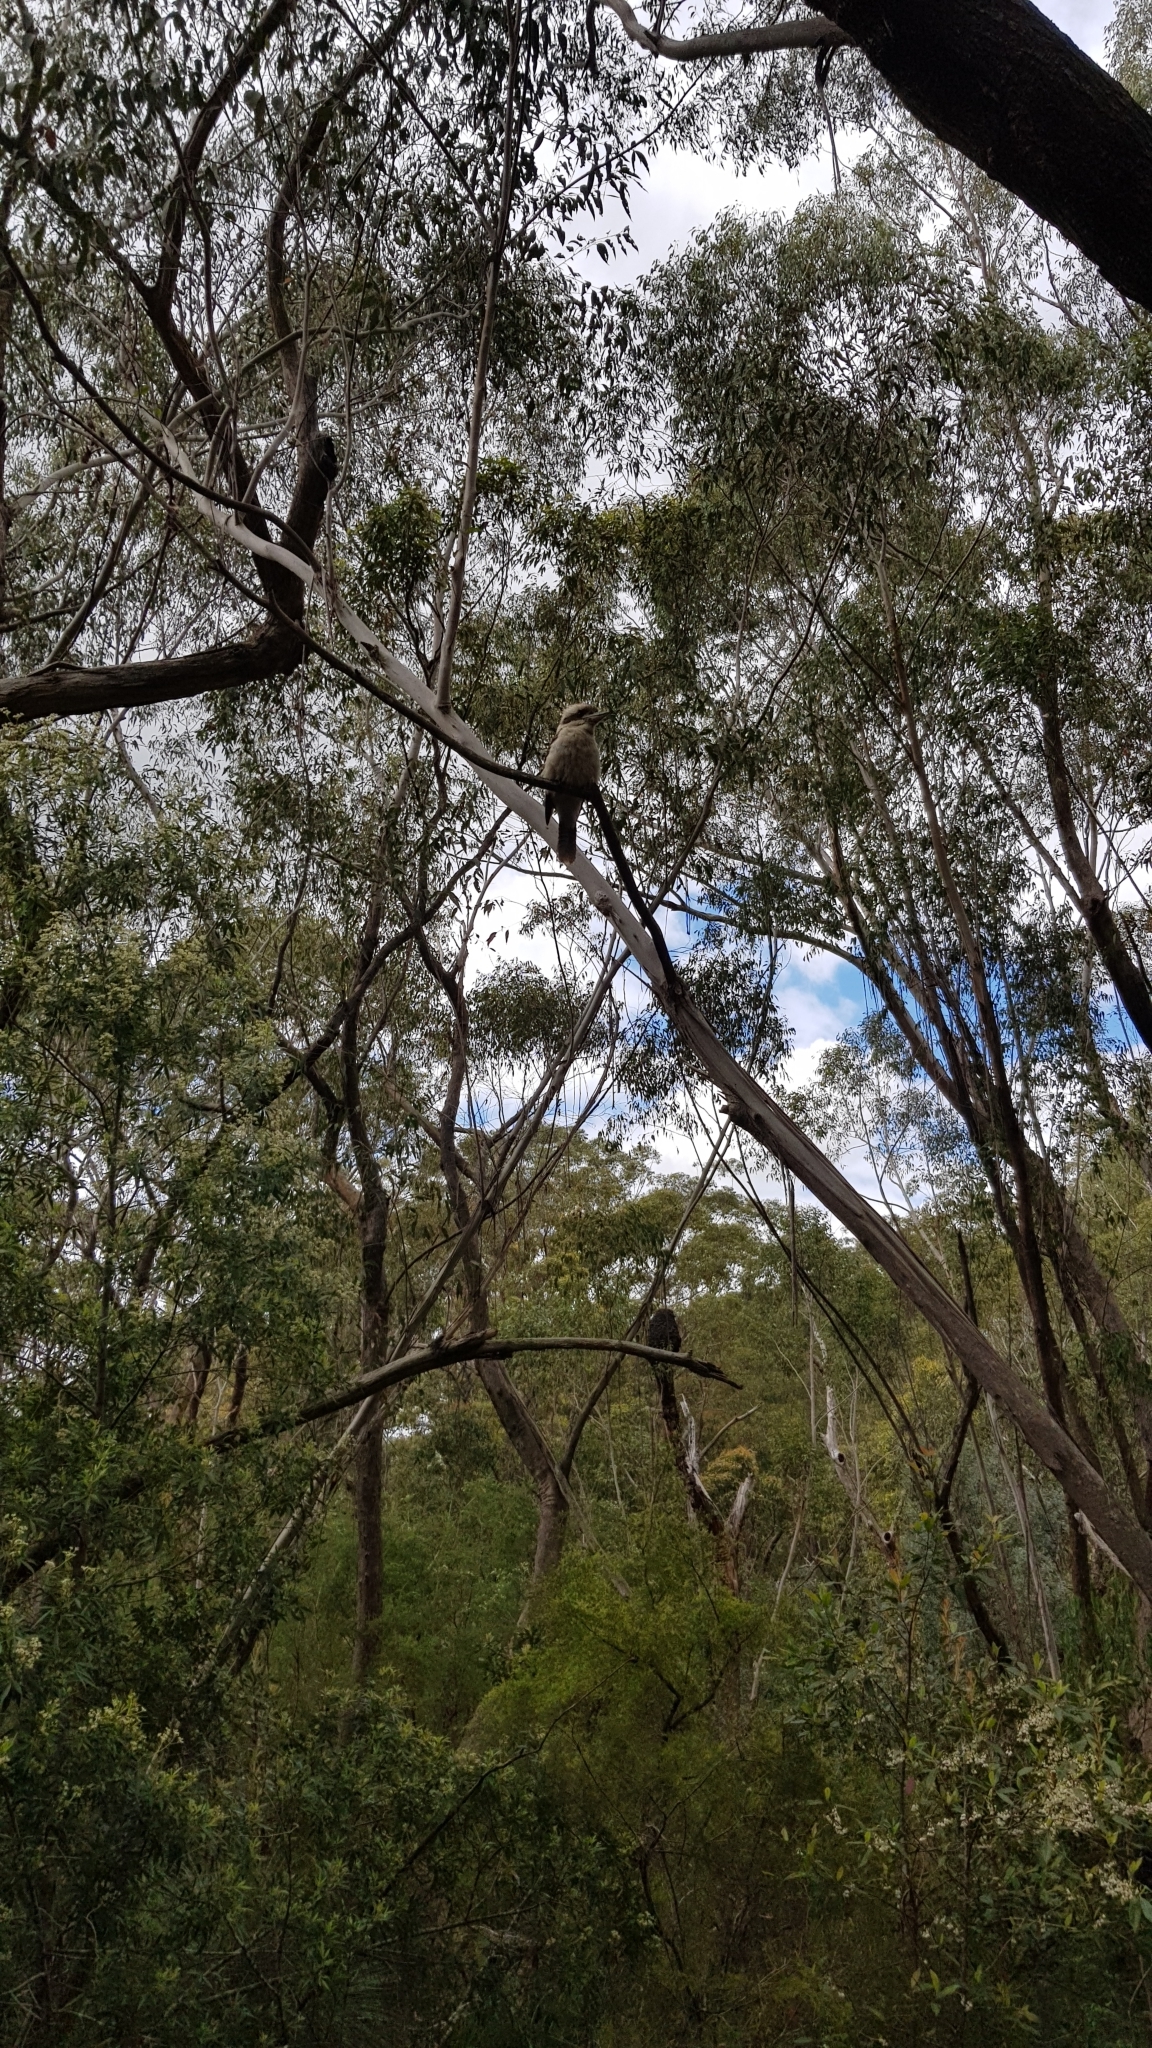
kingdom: Animalia
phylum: Chordata
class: Aves
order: Coraciiformes
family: Alcedinidae
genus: Dacelo
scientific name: Dacelo novaeguineae
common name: Laughing kookaburra
